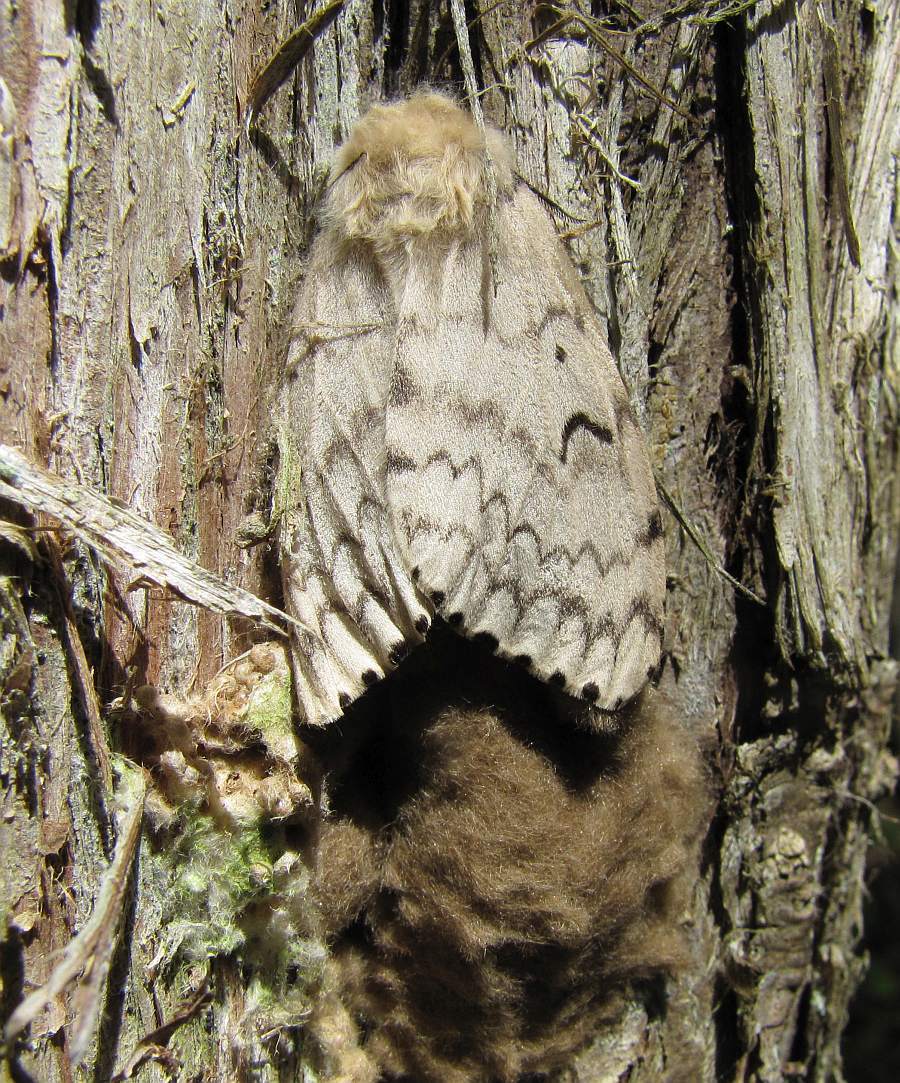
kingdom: Animalia
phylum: Arthropoda
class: Insecta
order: Lepidoptera
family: Erebidae
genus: Lymantria
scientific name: Lymantria dispar
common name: Gypsy moth
